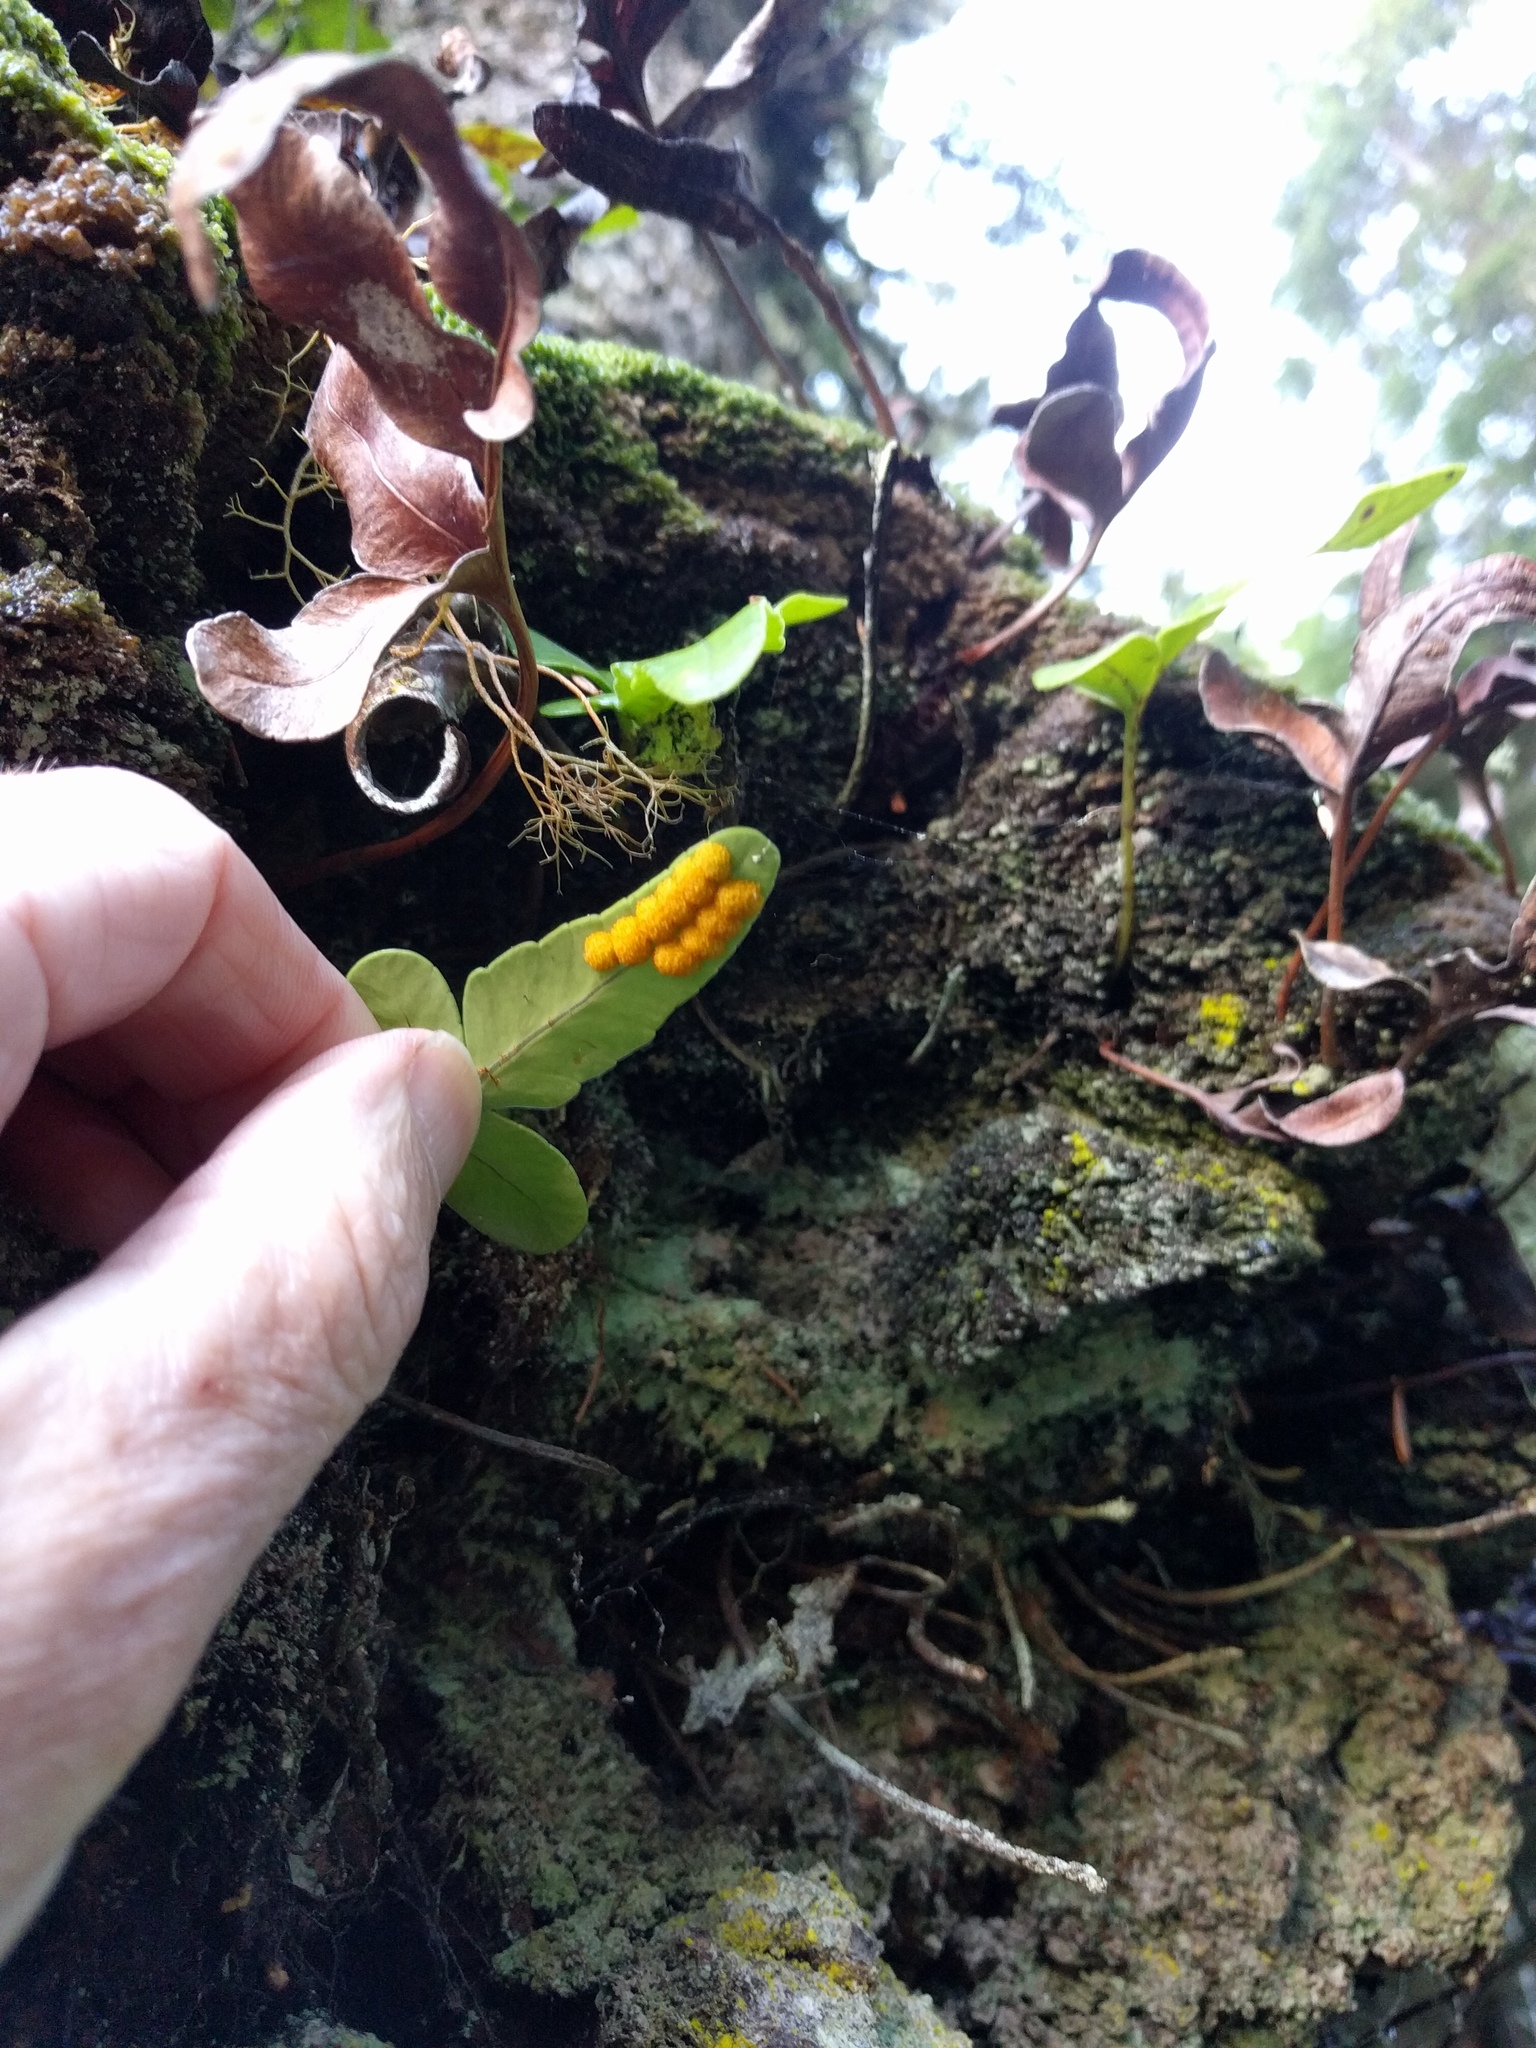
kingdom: Plantae
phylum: Tracheophyta
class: Polypodiopsida
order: Polypodiales
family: Polypodiaceae
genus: Polypodium
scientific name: Polypodium scouleri
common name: Scouler's polypody
